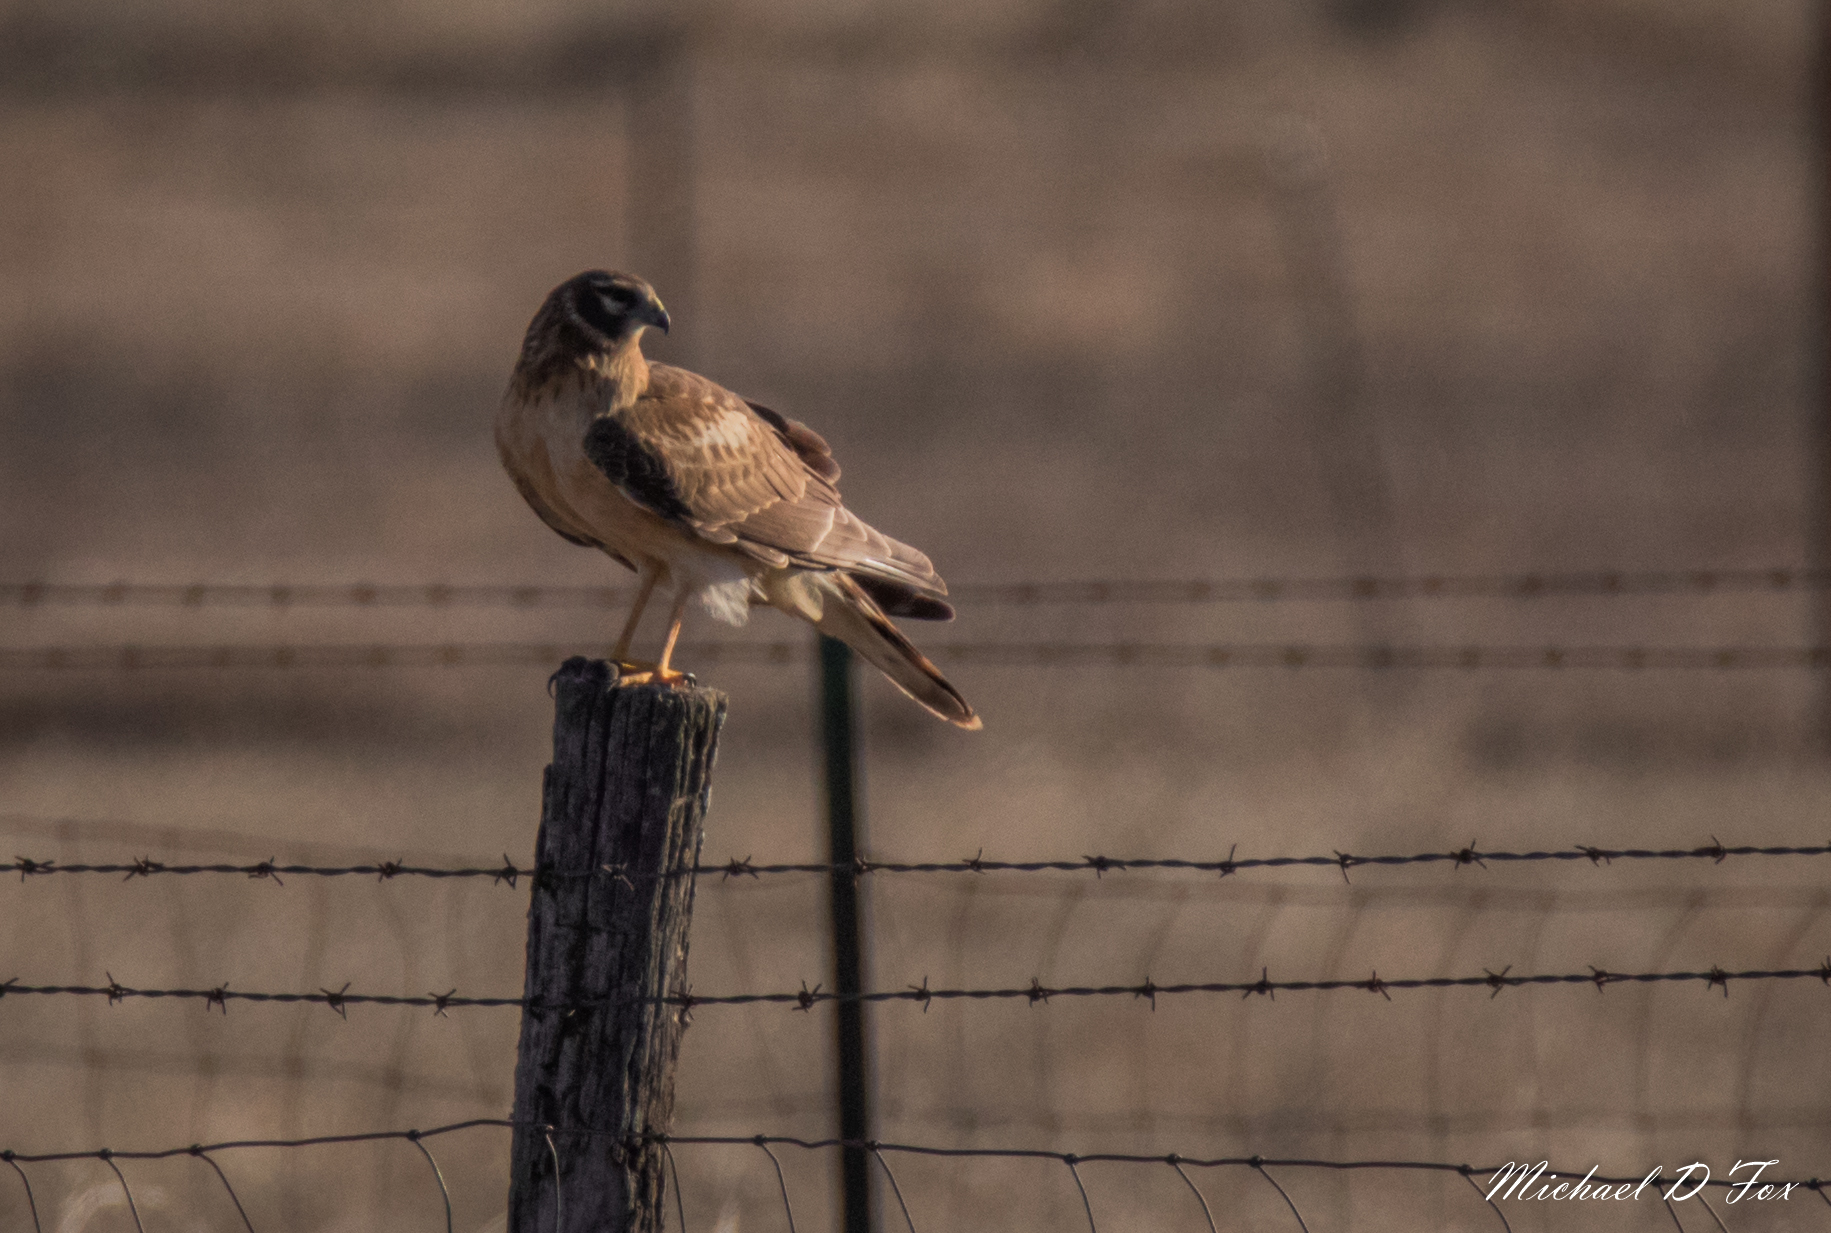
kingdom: Animalia
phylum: Chordata
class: Aves
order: Accipitriformes
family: Accipitridae
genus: Circus
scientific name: Circus cyaneus
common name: Hen harrier
